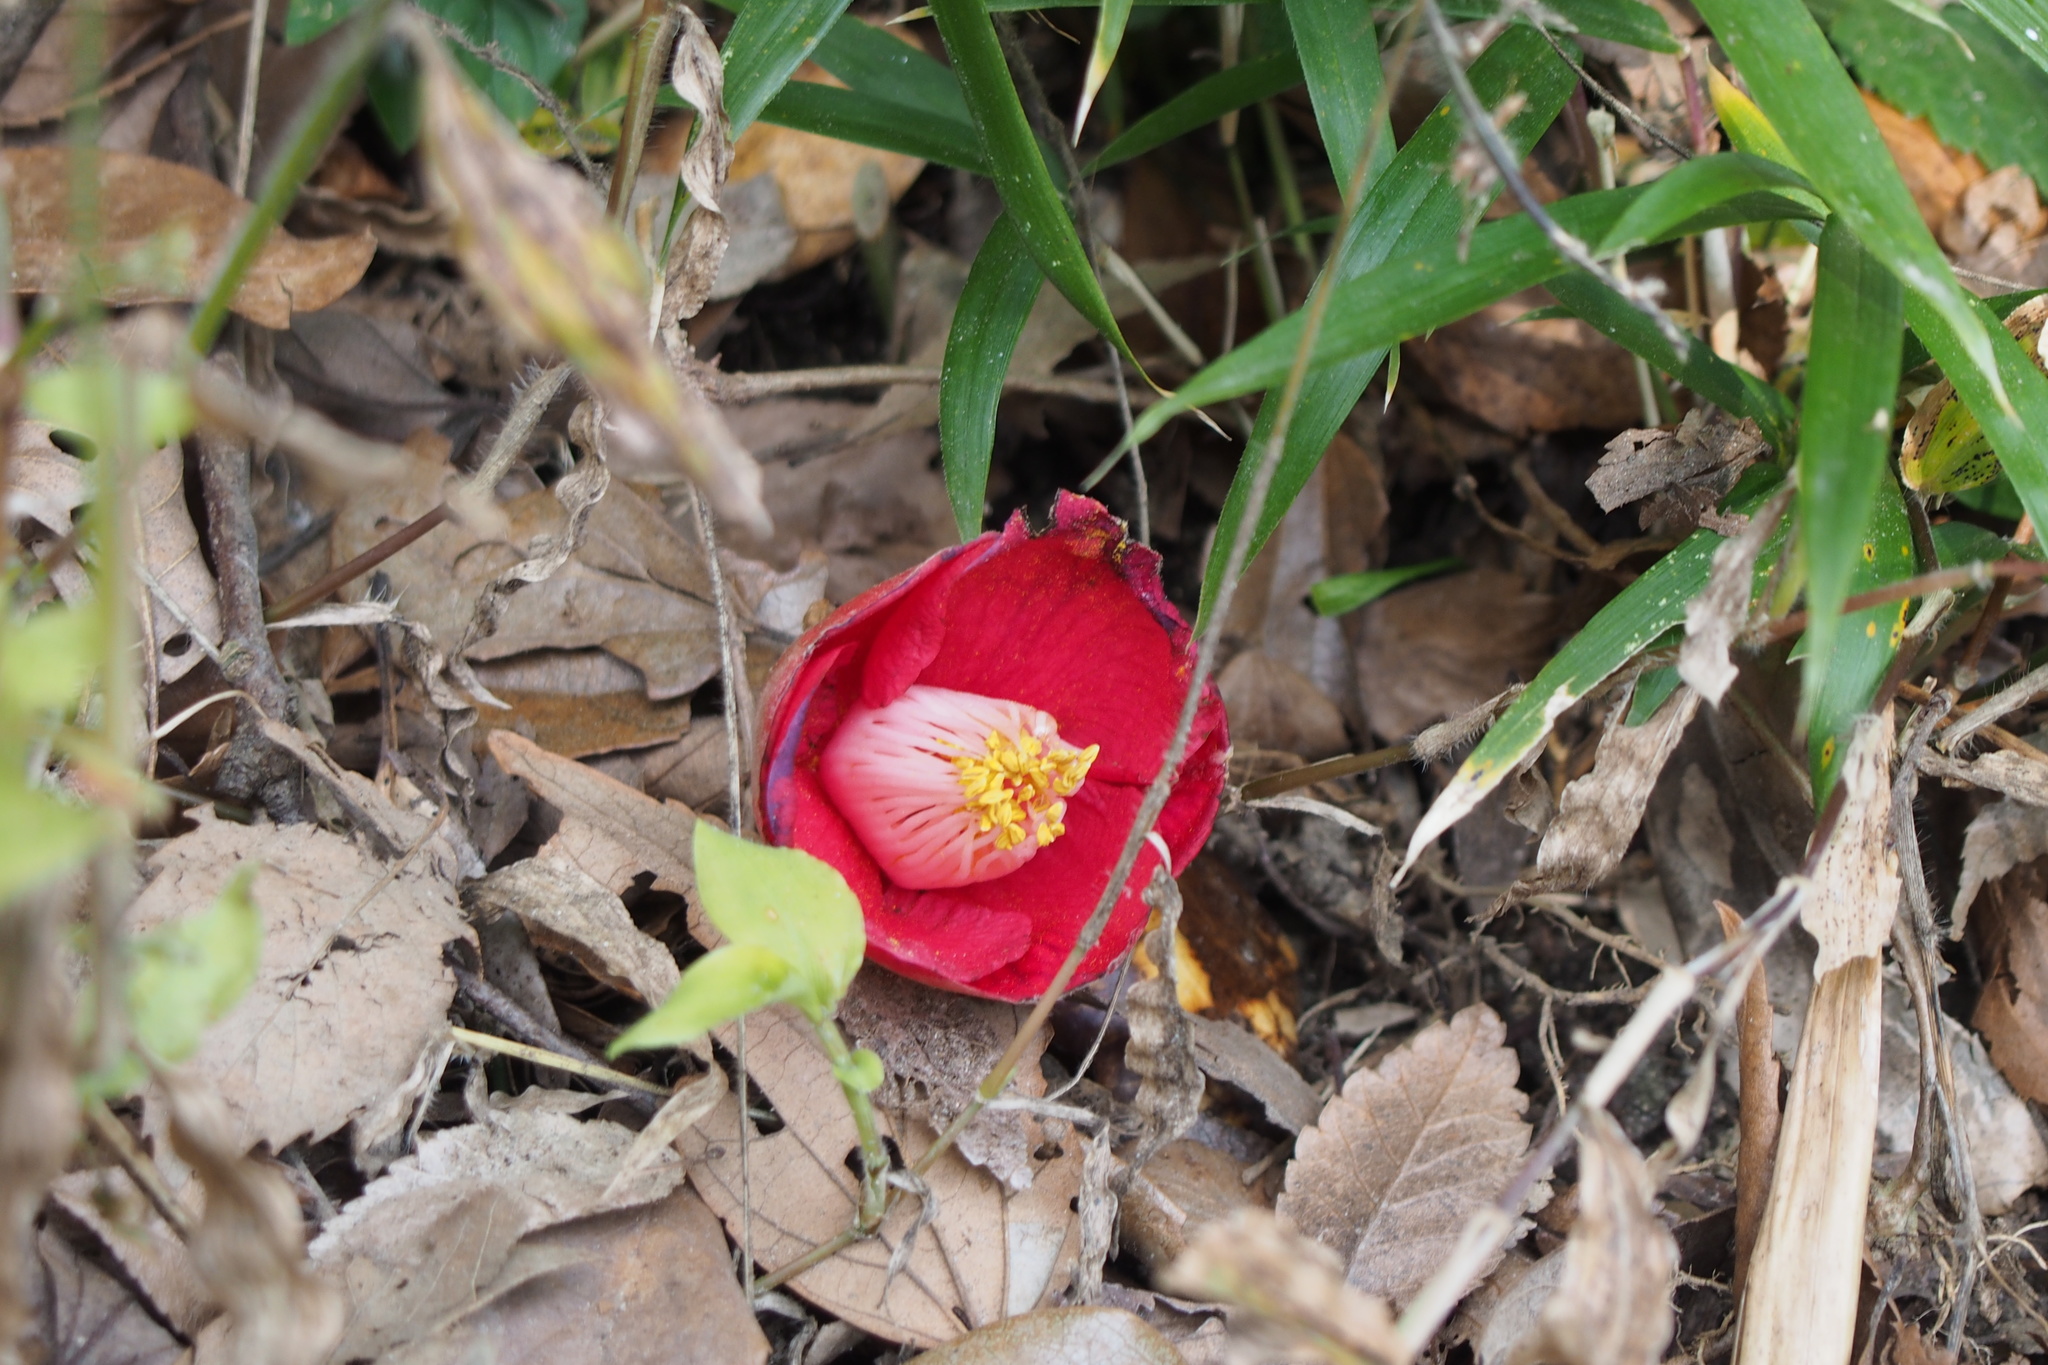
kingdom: Plantae
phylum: Tracheophyta
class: Magnoliopsida
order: Ericales
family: Theaceae
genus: Camellia
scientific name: Camellia japonica
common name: Camellia
